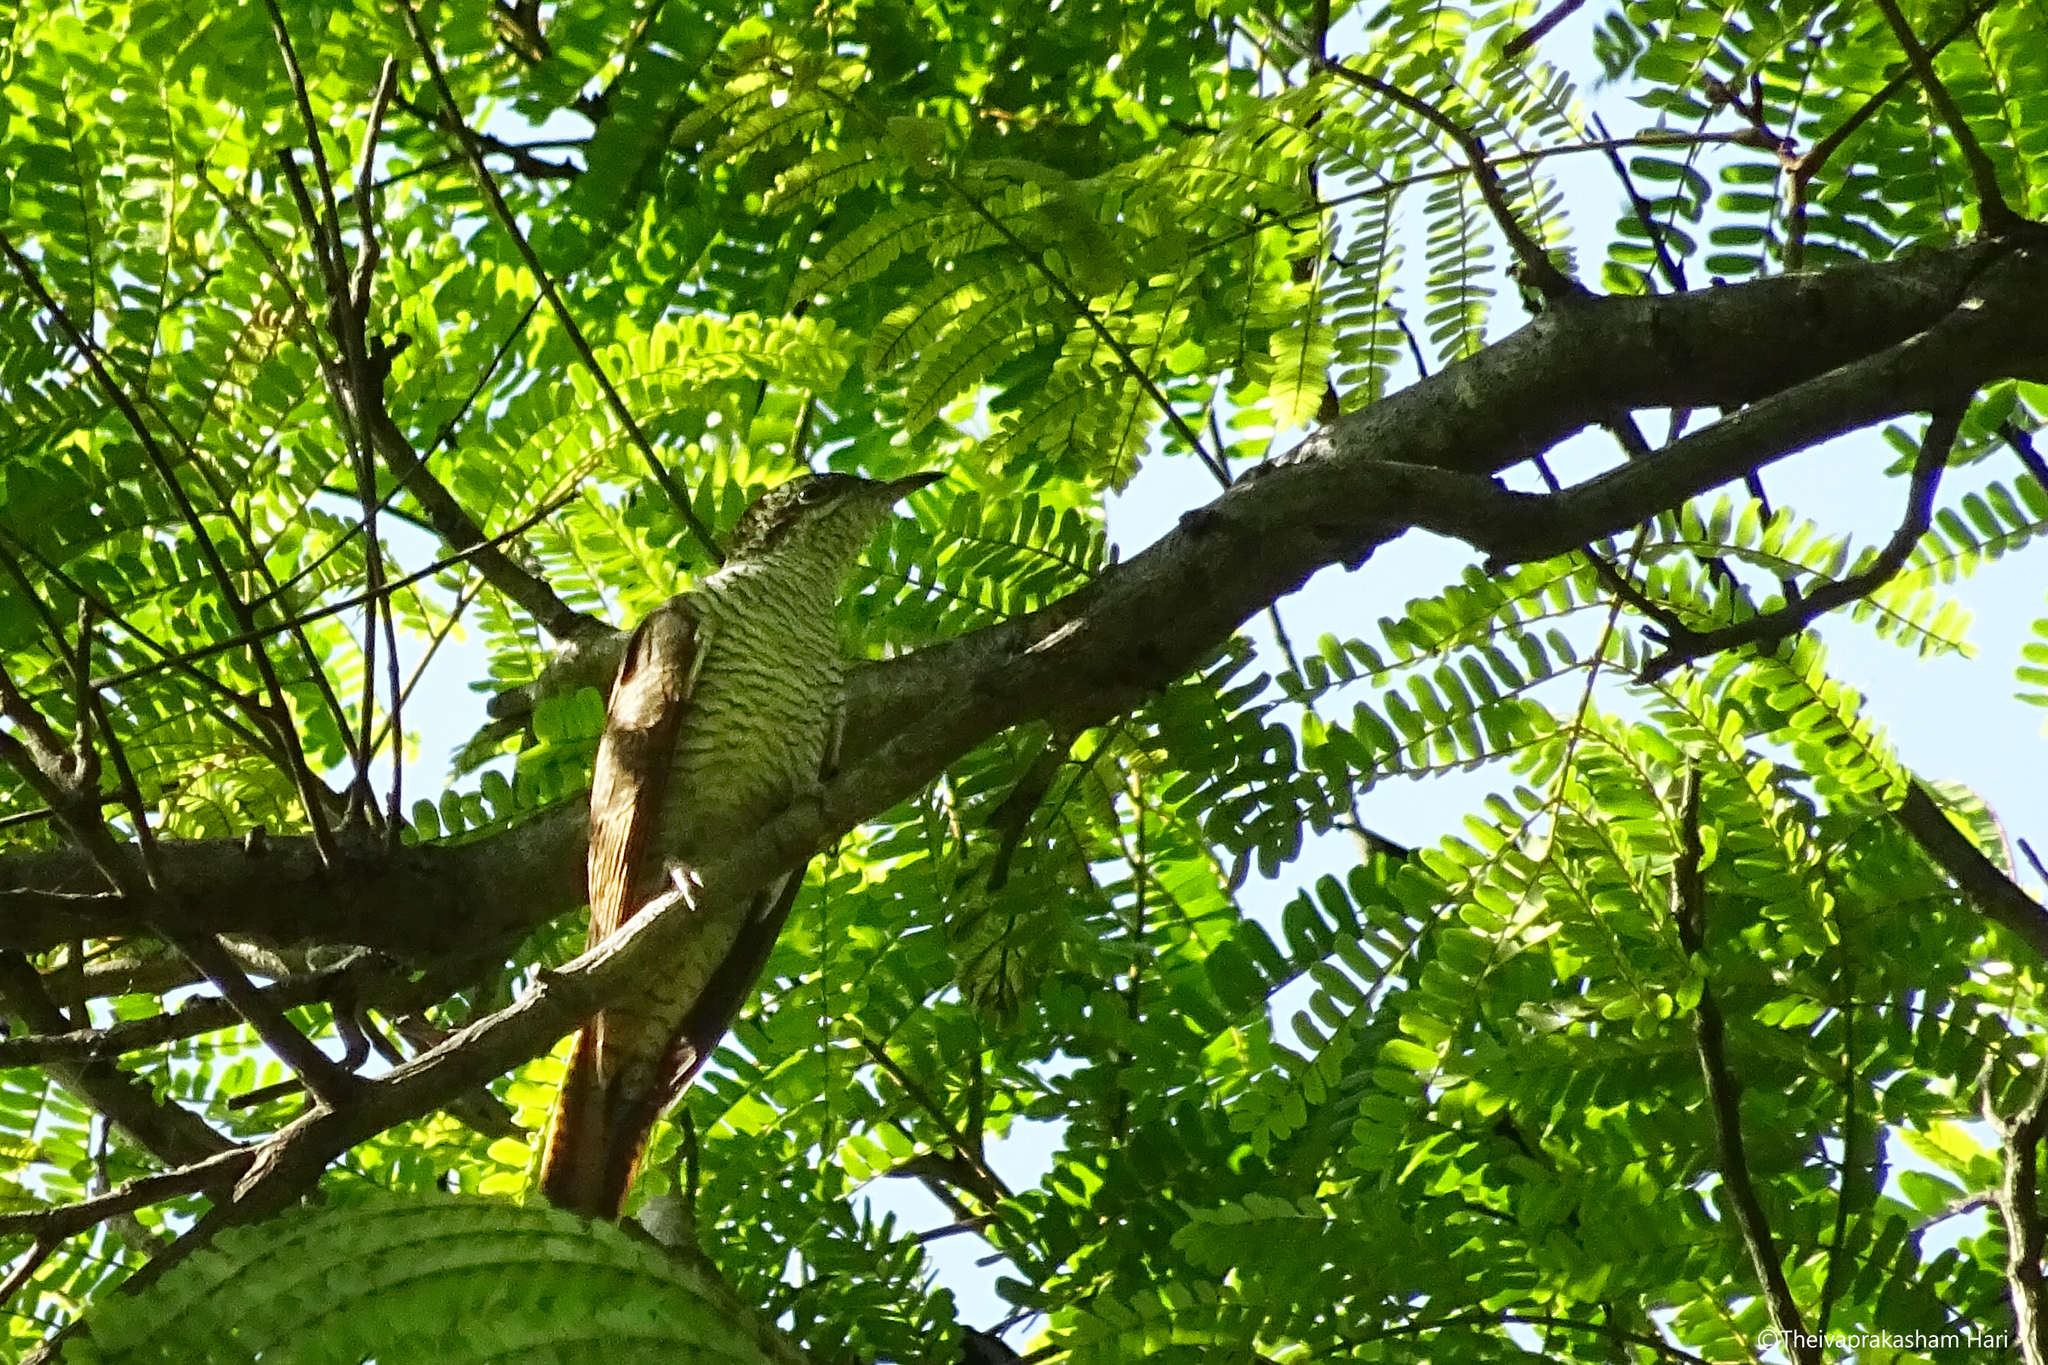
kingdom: Animalia
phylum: Chordata
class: Aves
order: Cuculiformes
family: Cuculidae
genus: Cacomantis
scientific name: Cacomantis sonneratii
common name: Banded bay cuckoo
